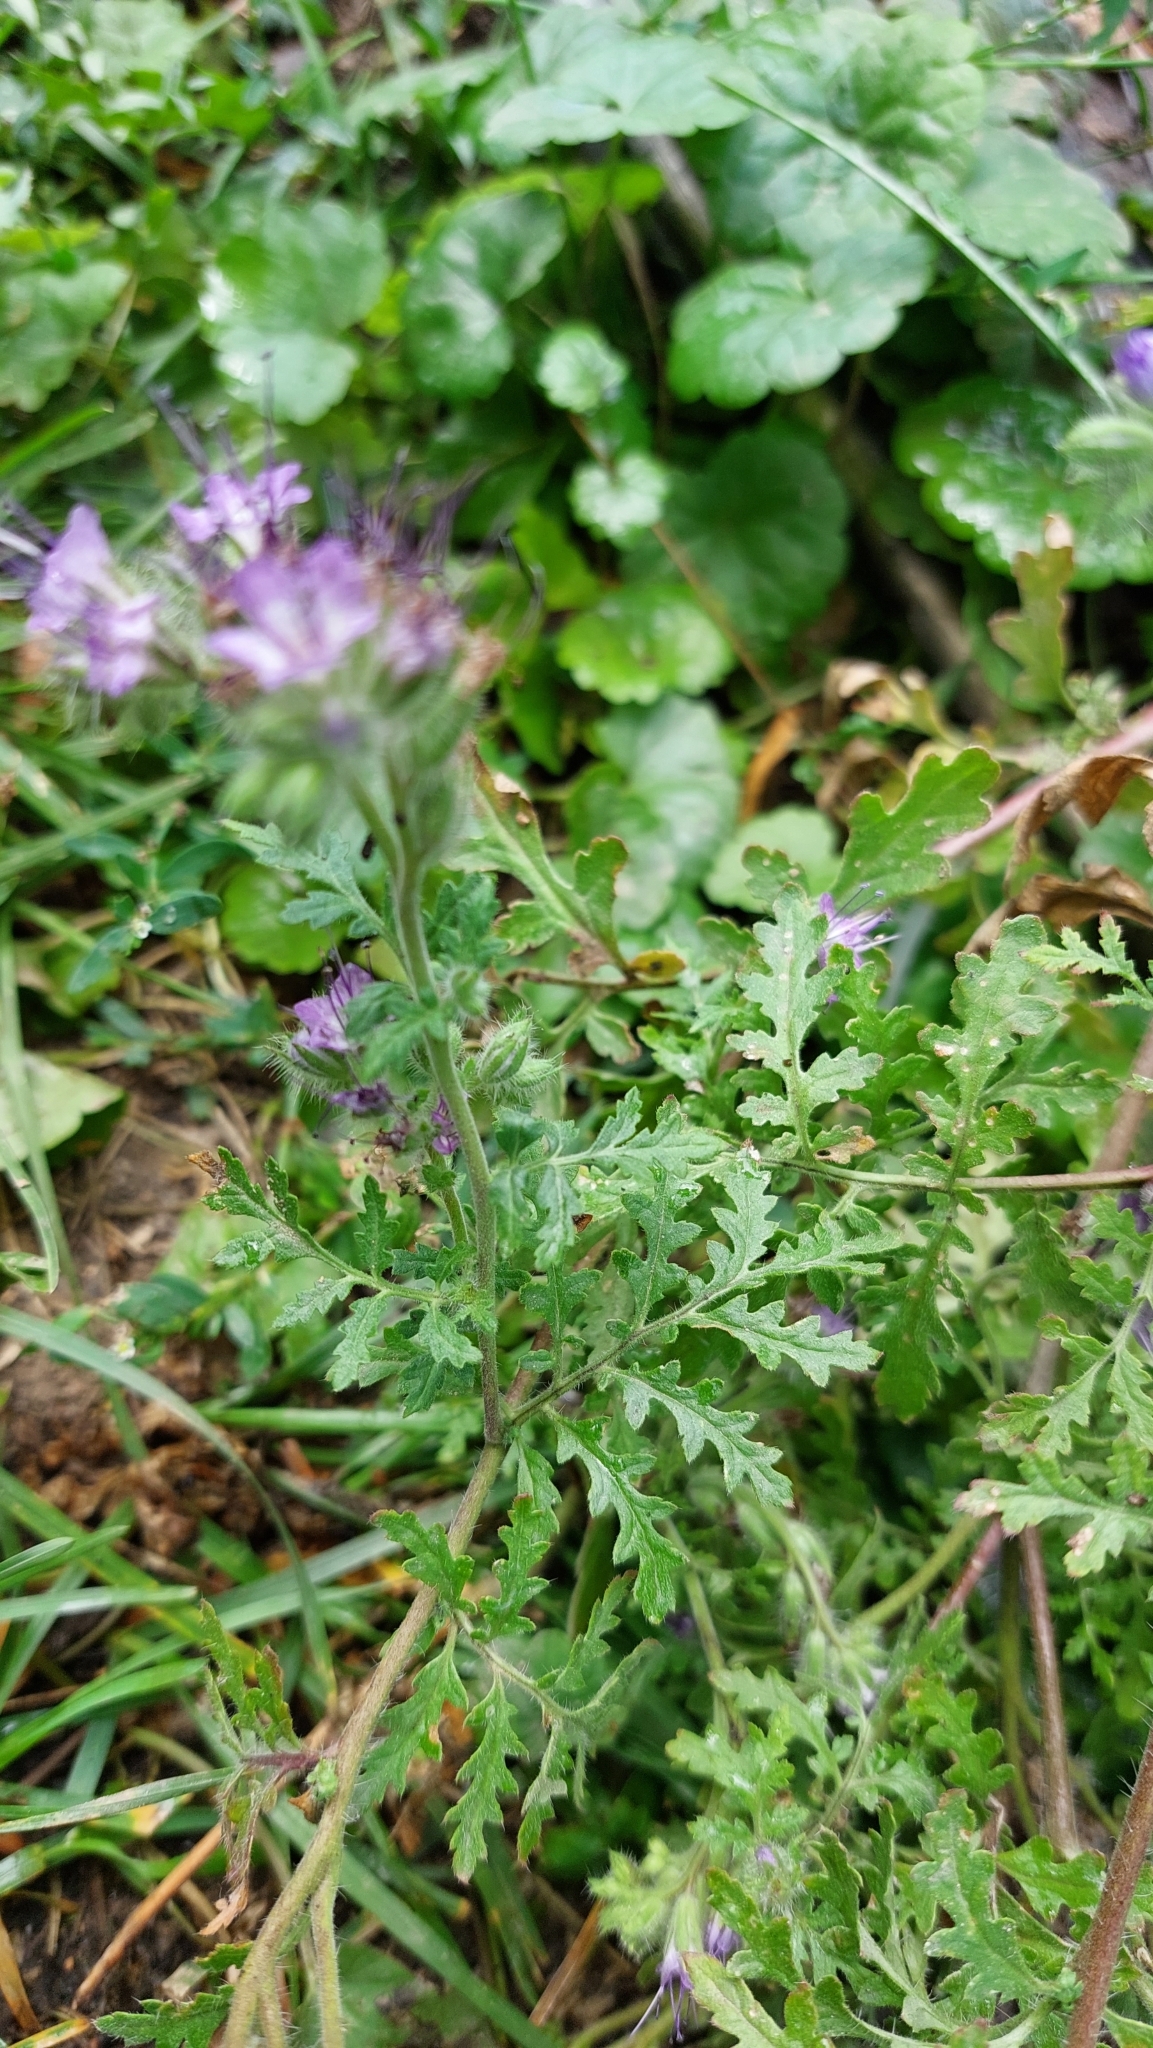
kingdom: Plantae
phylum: Tracheophyta
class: Magnoliopsida
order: Boraginales
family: Hydrophyllaceae
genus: Phacelia
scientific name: Phacelia tanacetifolia
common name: Phacelia
